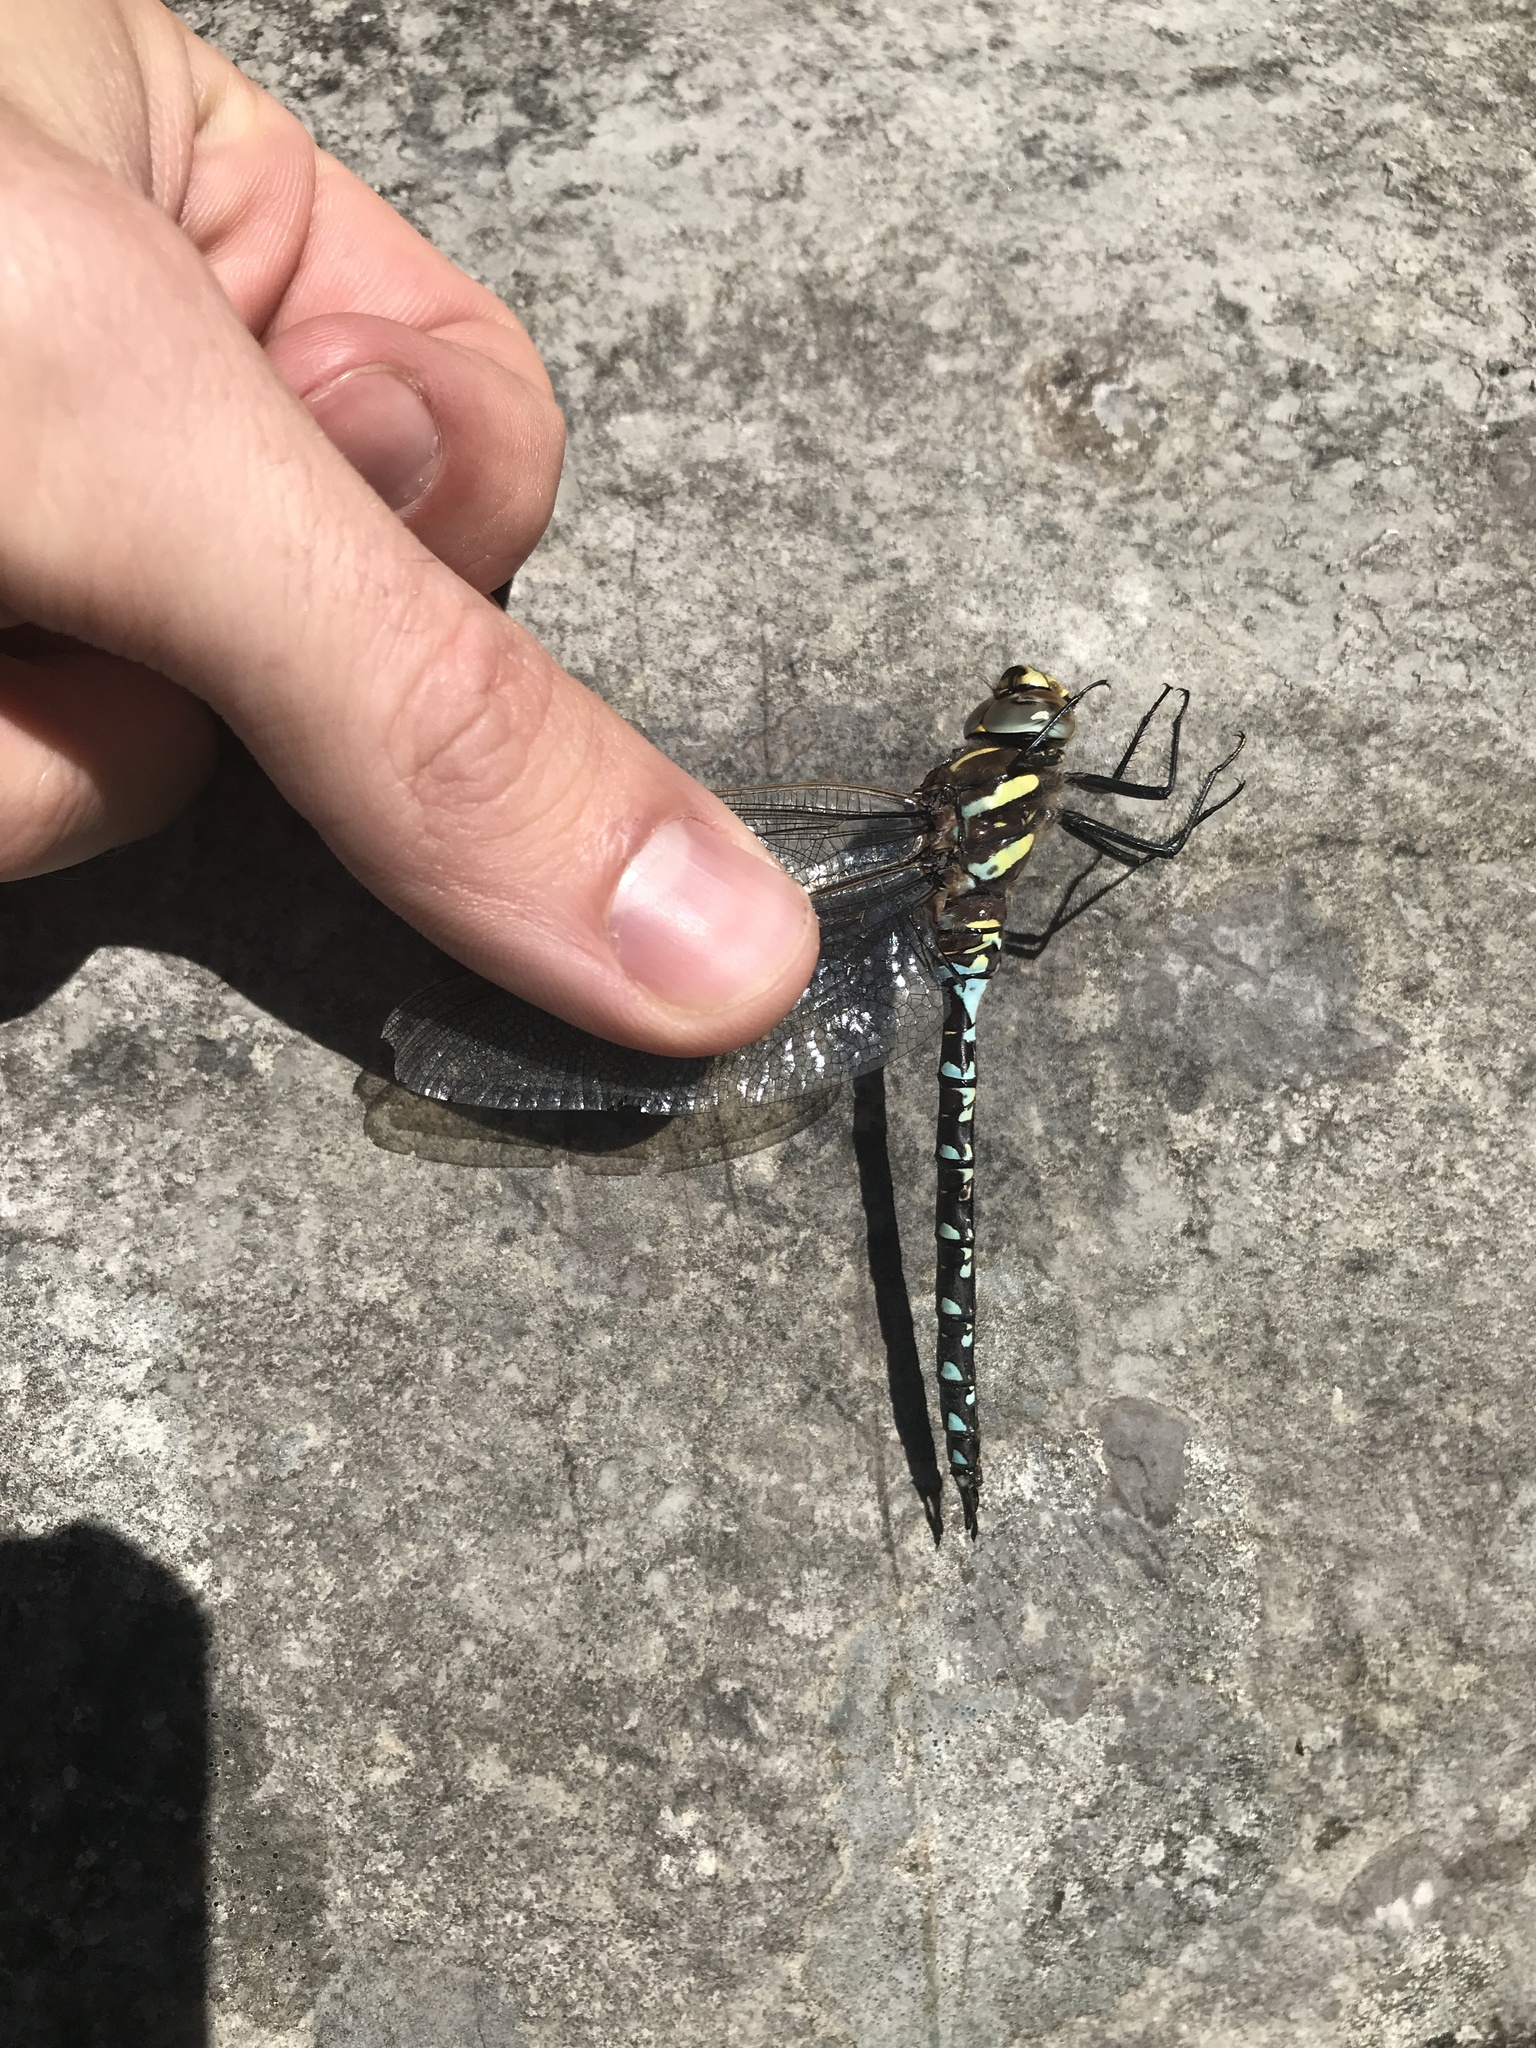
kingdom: Animalia
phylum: Arthropoda
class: Insecta
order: Odonata
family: Aeshnidae
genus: Aeshna
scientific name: Aeshna juncea
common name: Moorland hawker
